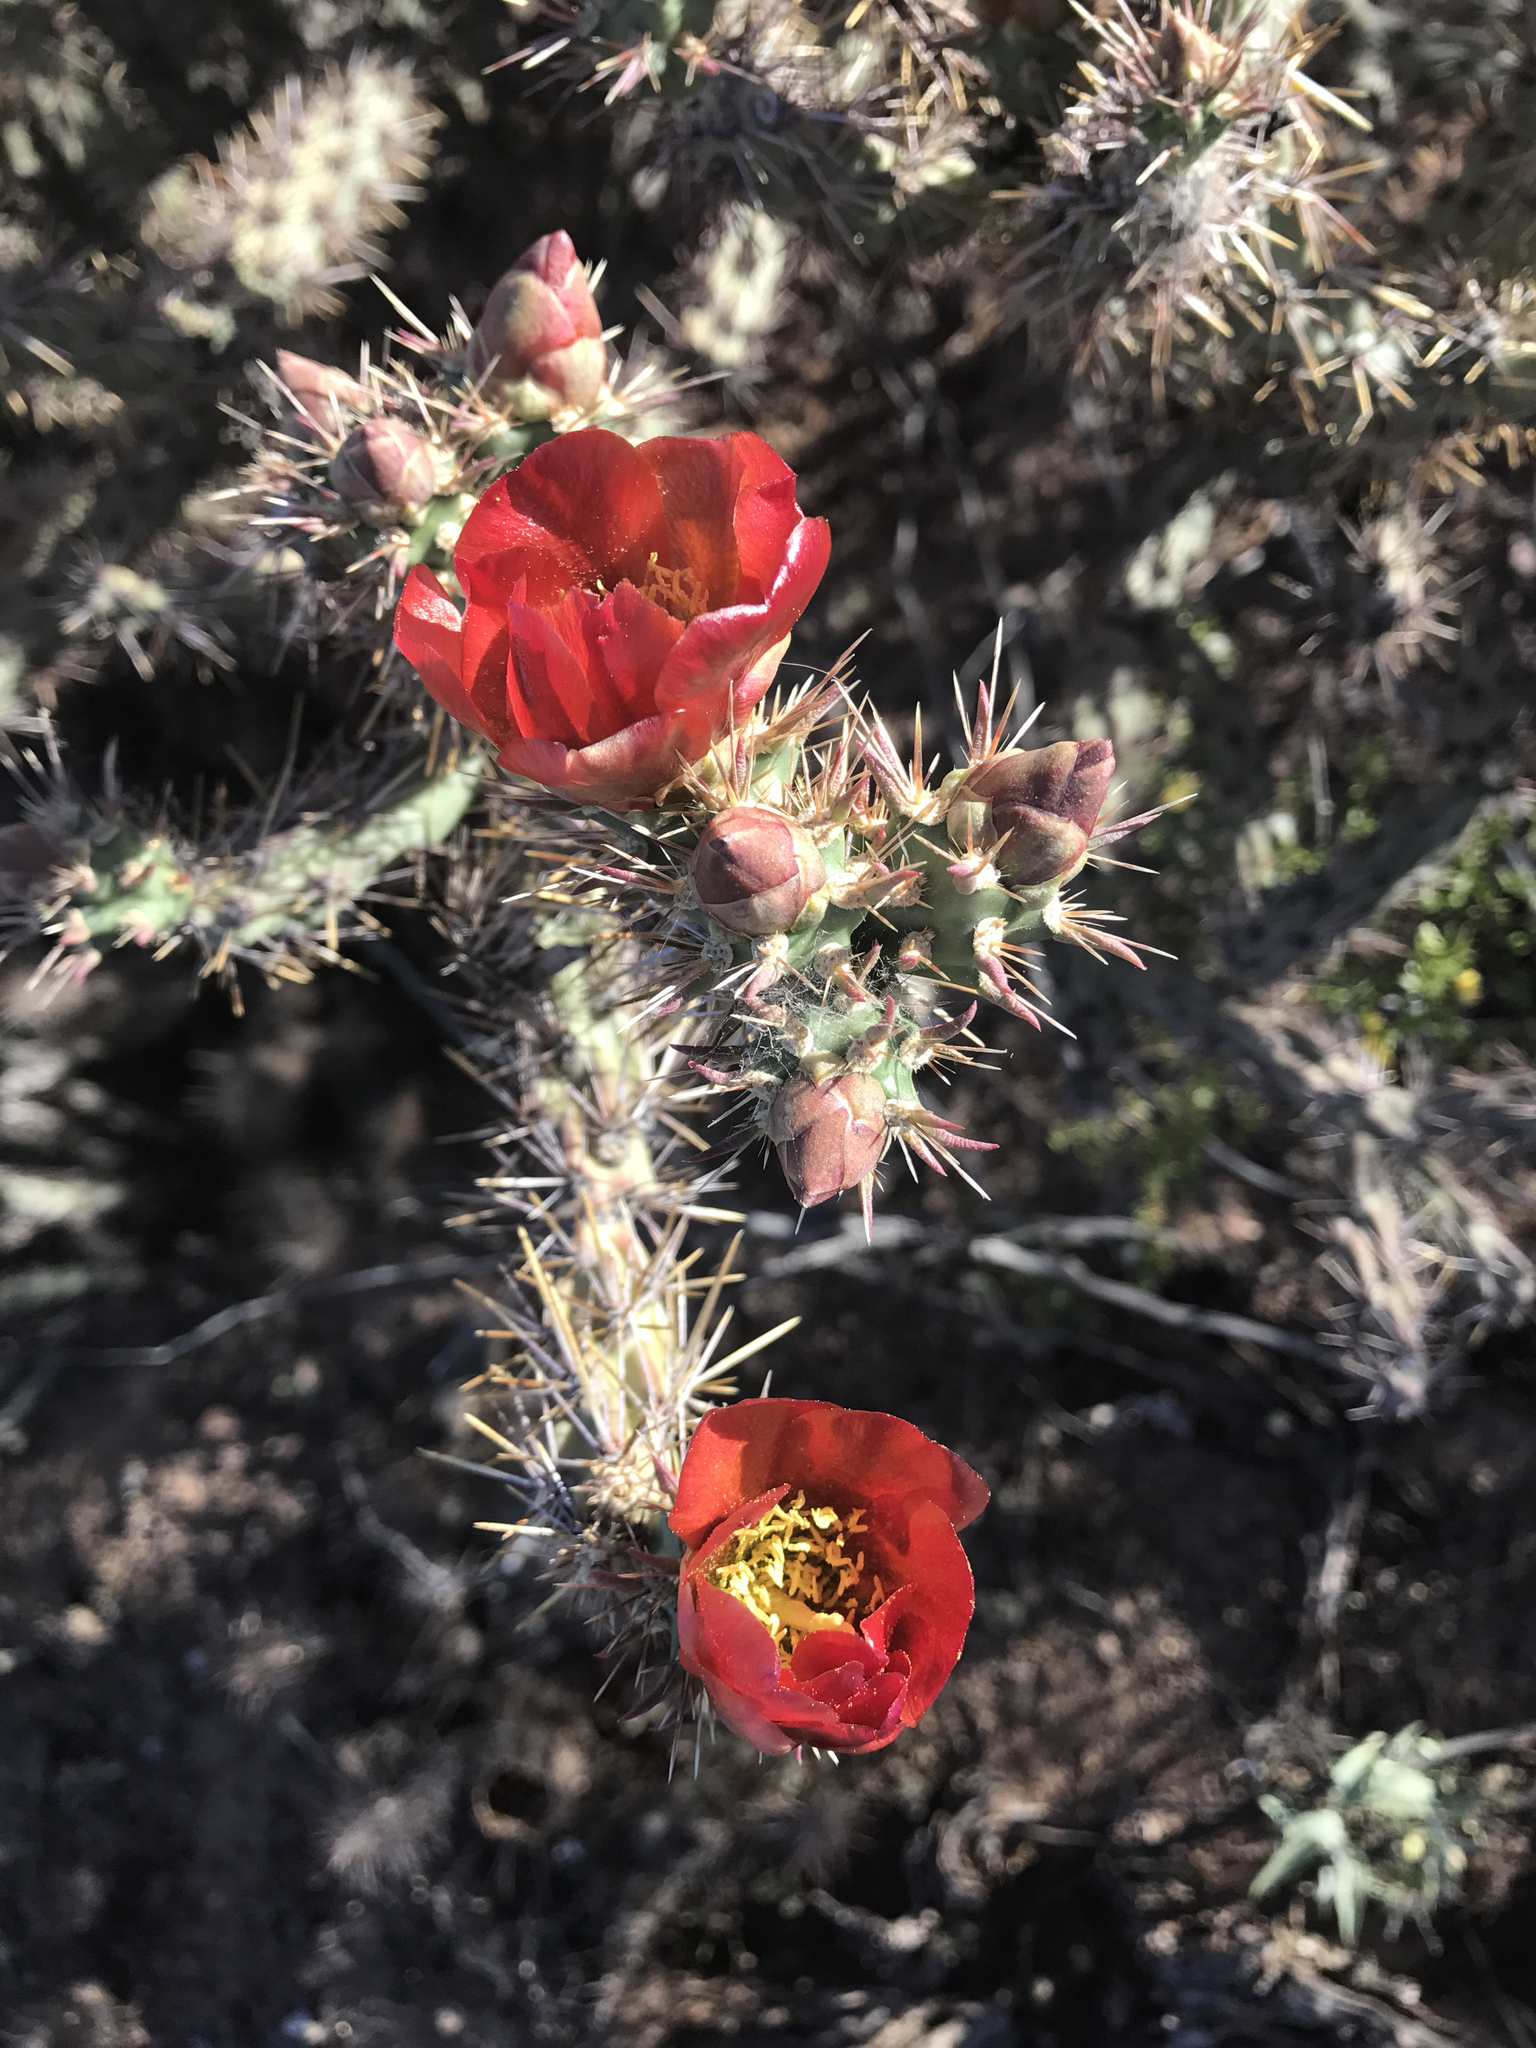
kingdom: Plantae
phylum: Tracheophyta
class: Magnoliopsida
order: Caryophyllales
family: Cactaceae
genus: Cylindropuntia
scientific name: Cylindropuntia thurberi
